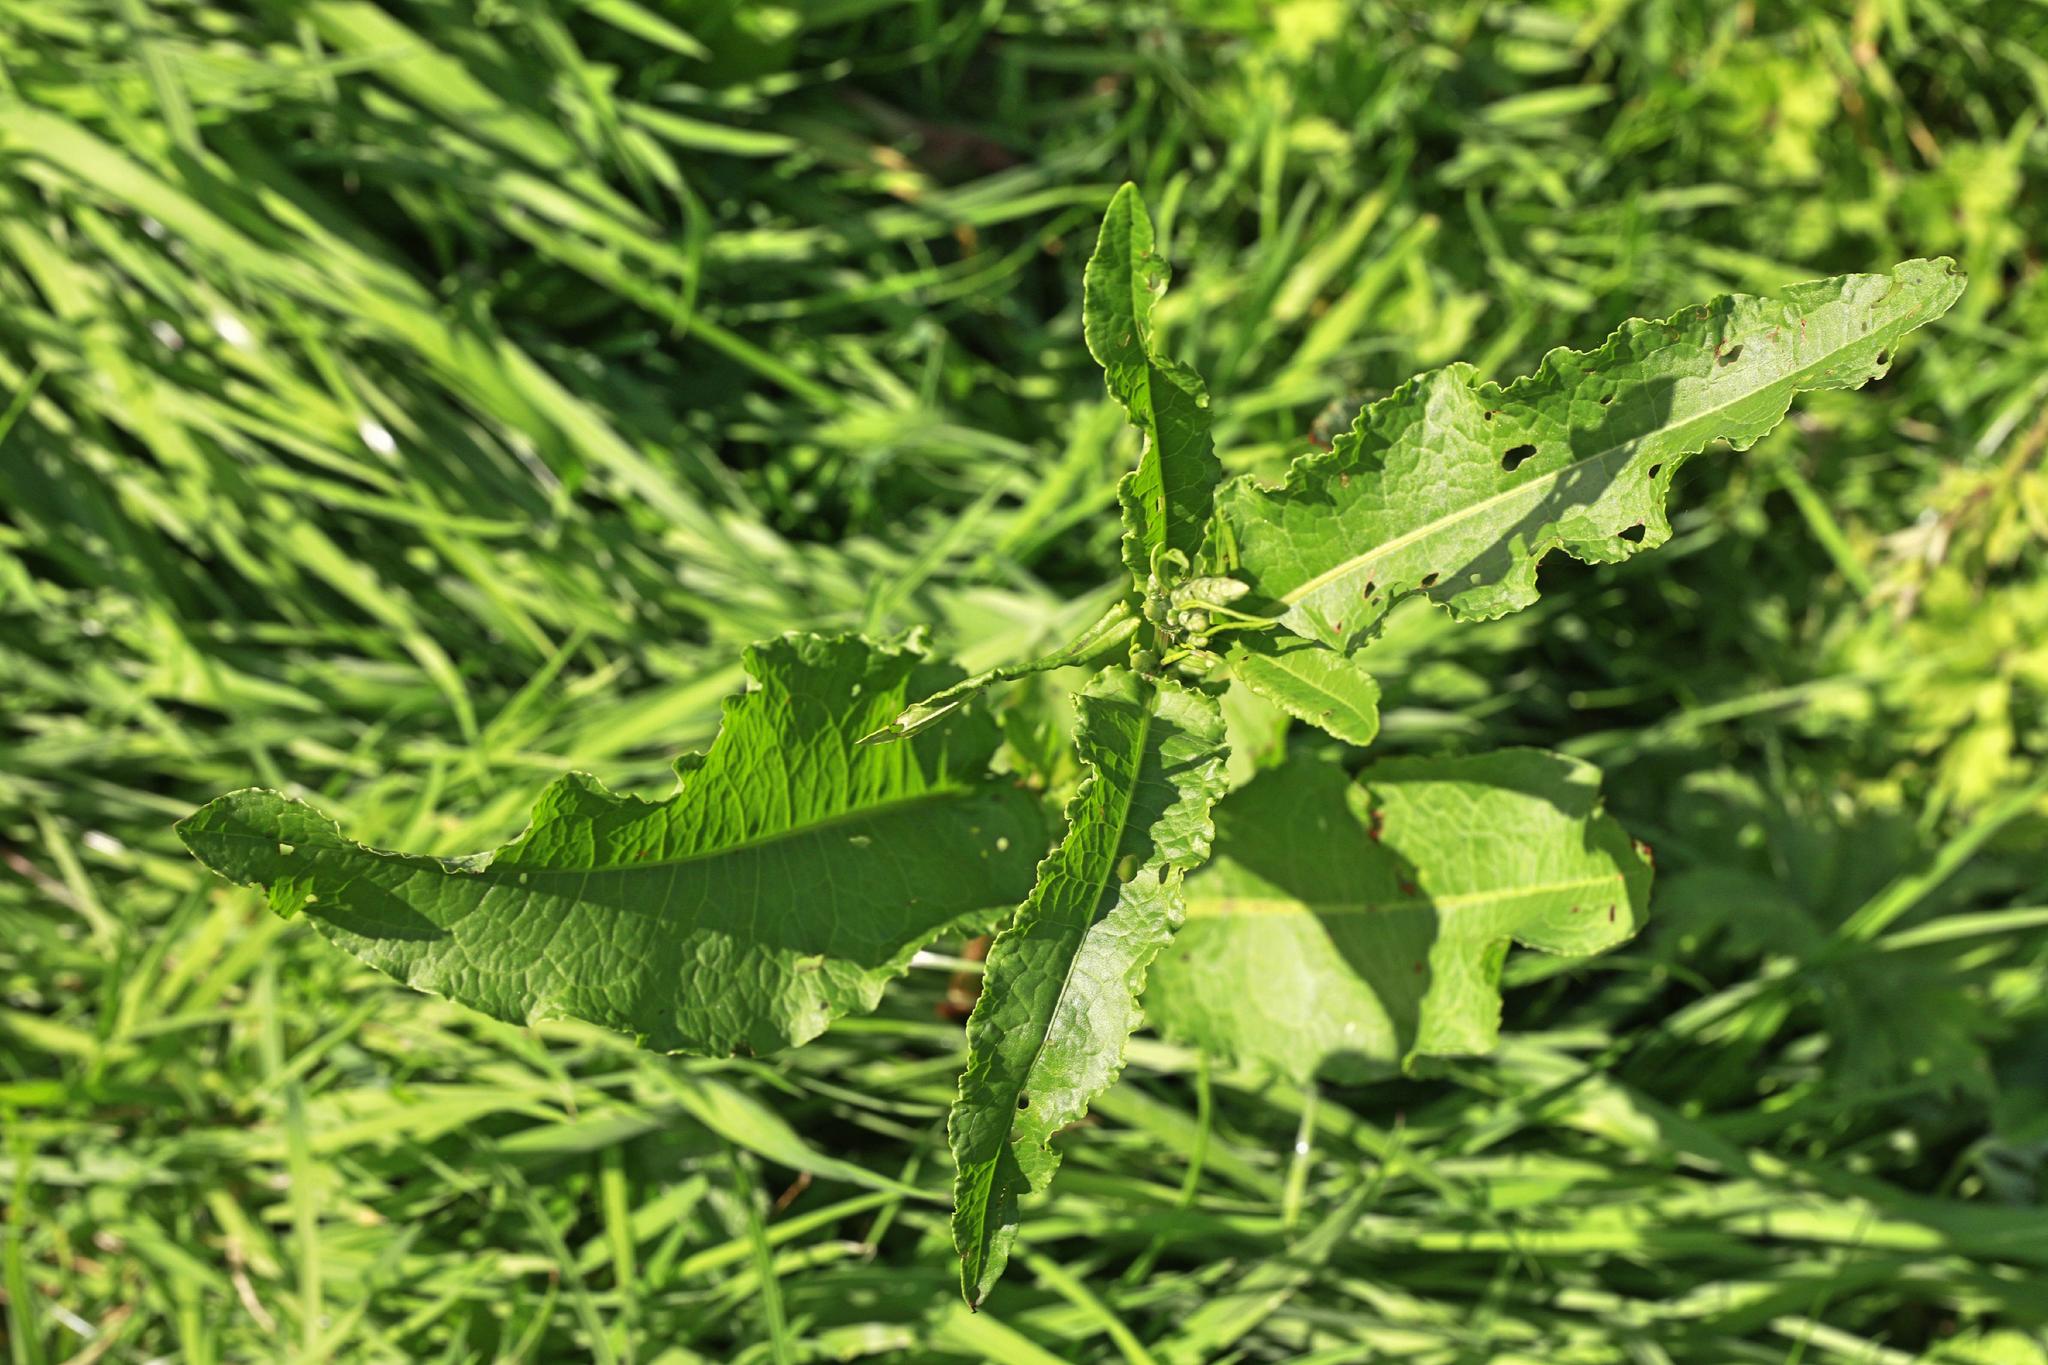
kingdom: Plantae
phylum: Tracheophyta
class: Magnoliopsida
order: Caryophyllales
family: Polygonaceae
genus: Rumex
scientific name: Rumex crispus
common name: Curled dock
